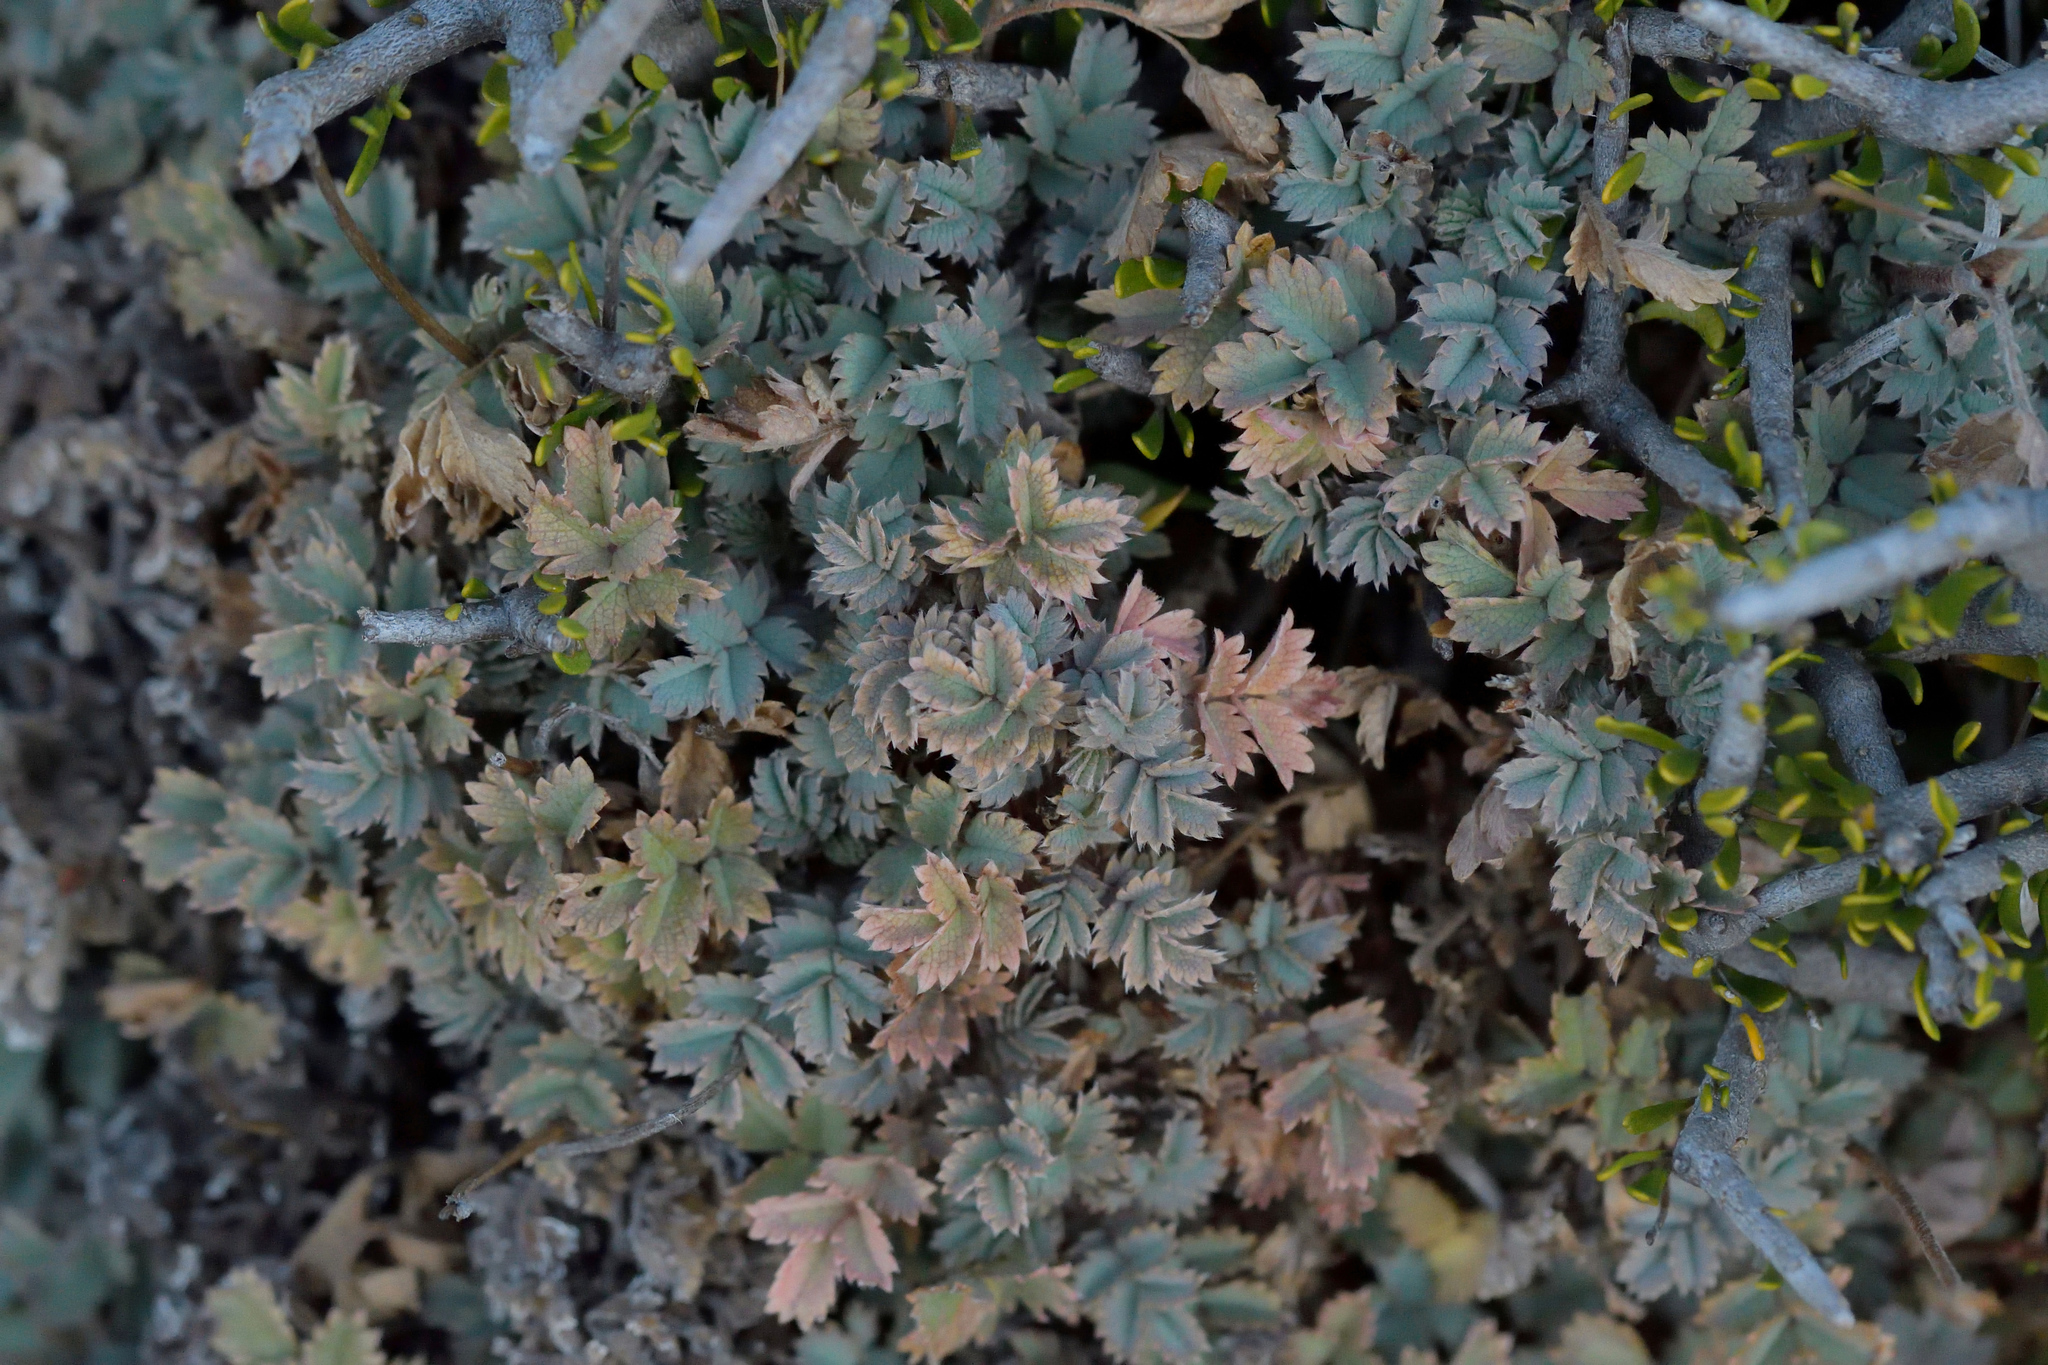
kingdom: Plantae
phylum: Tracheophyta
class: Magnoliopsida
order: Rosales
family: Rosaceae
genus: Acaena
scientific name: Acaena caesiiglauca
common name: Glaucous pirri-pirri-bur
